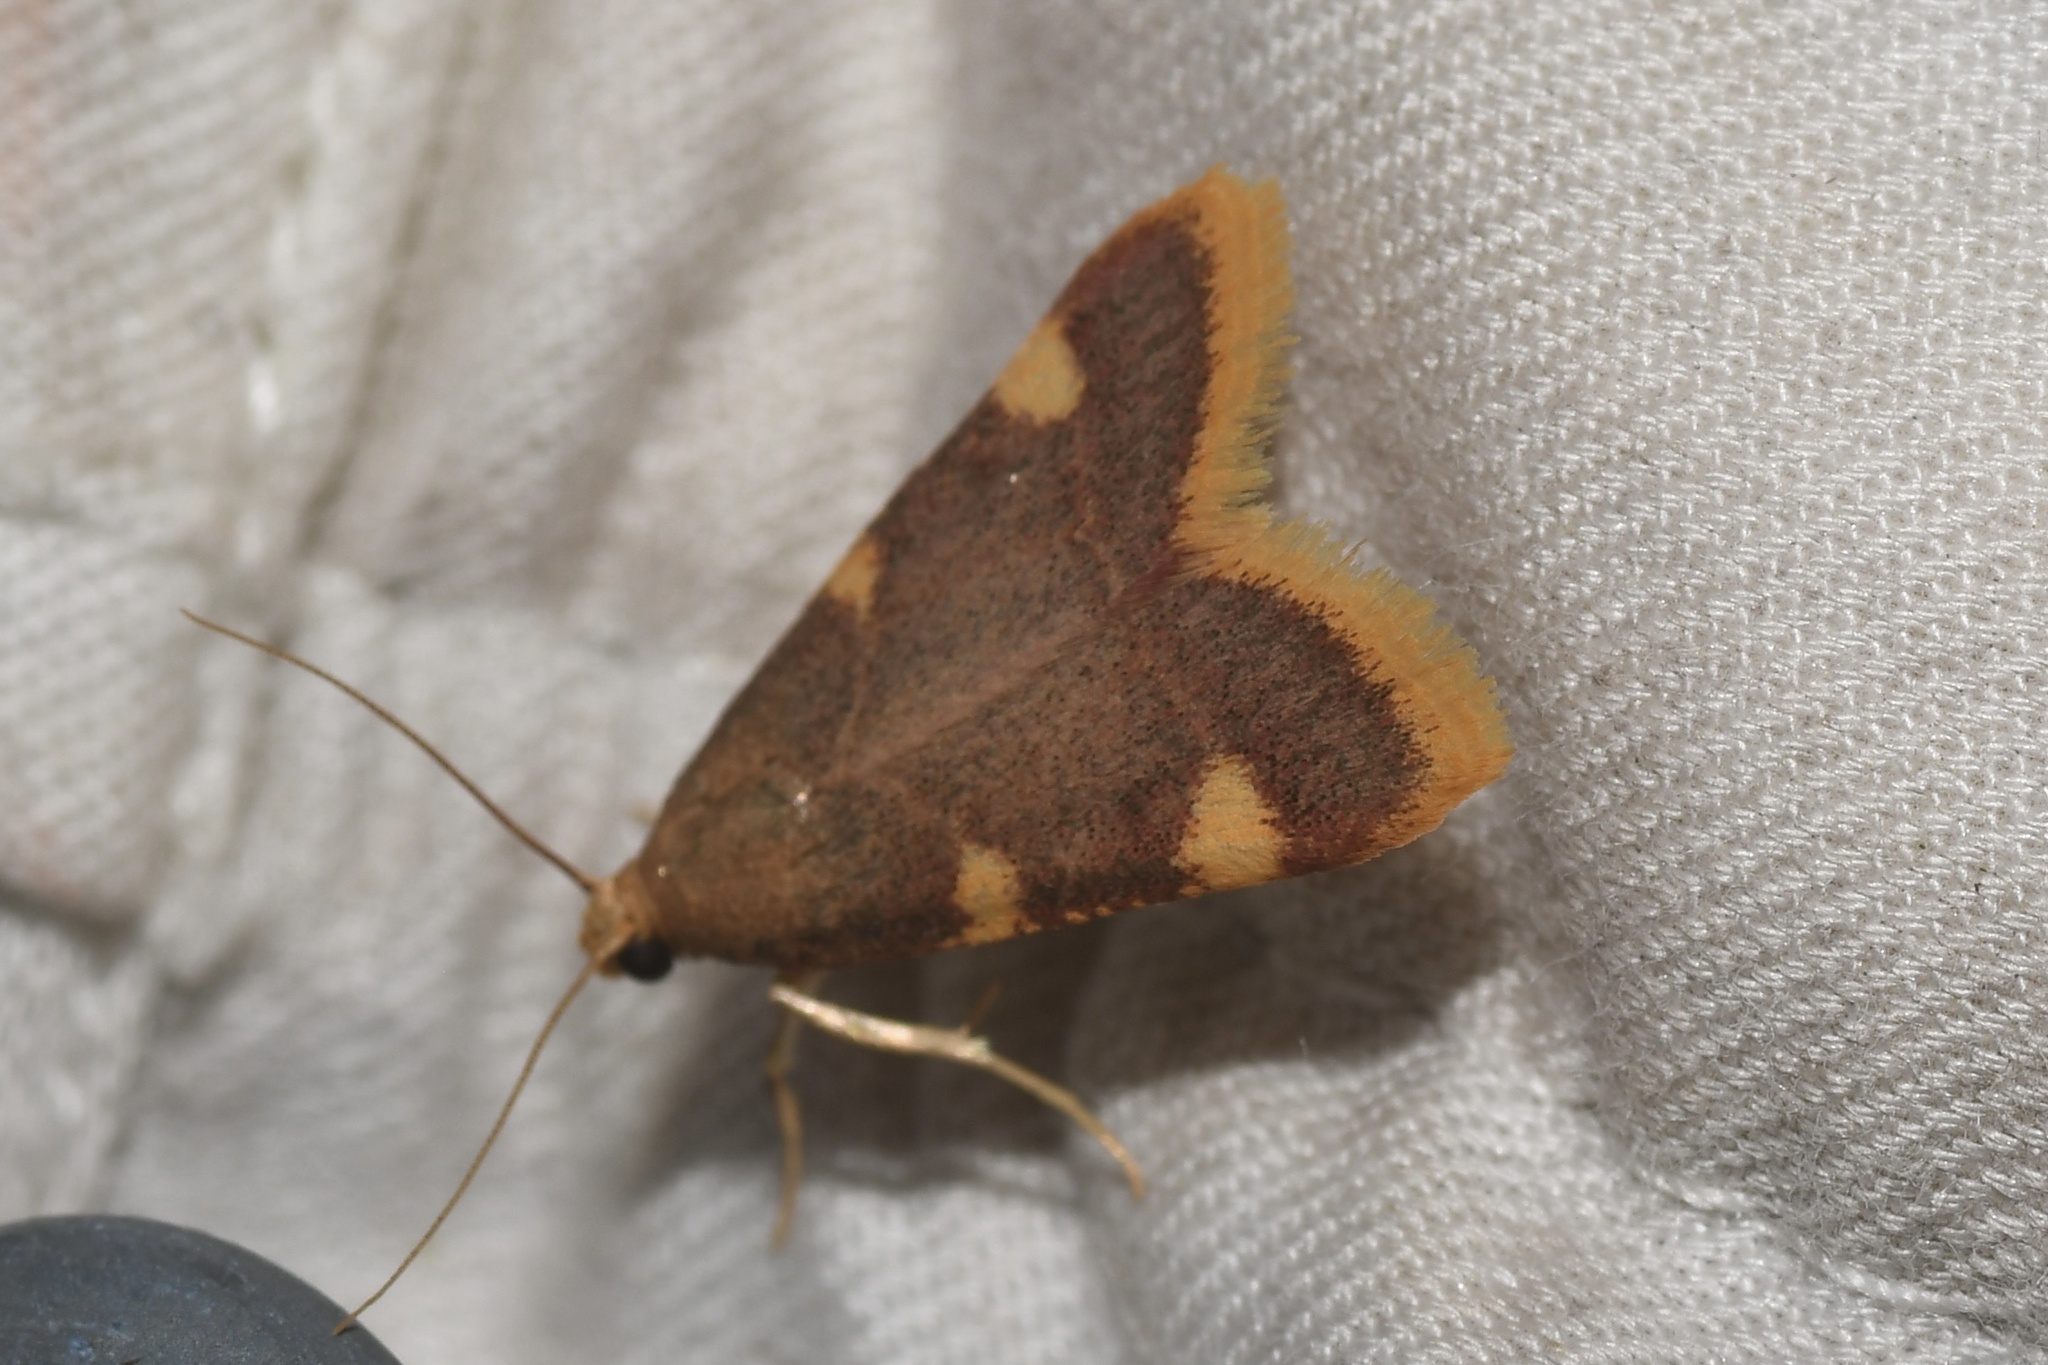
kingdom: Animalia
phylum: Arthropoda
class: Insecta
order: Lepidoptera
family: Pyralidae
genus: Hypsopygia
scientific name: Hypsopygia costalis
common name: Gold triangle
